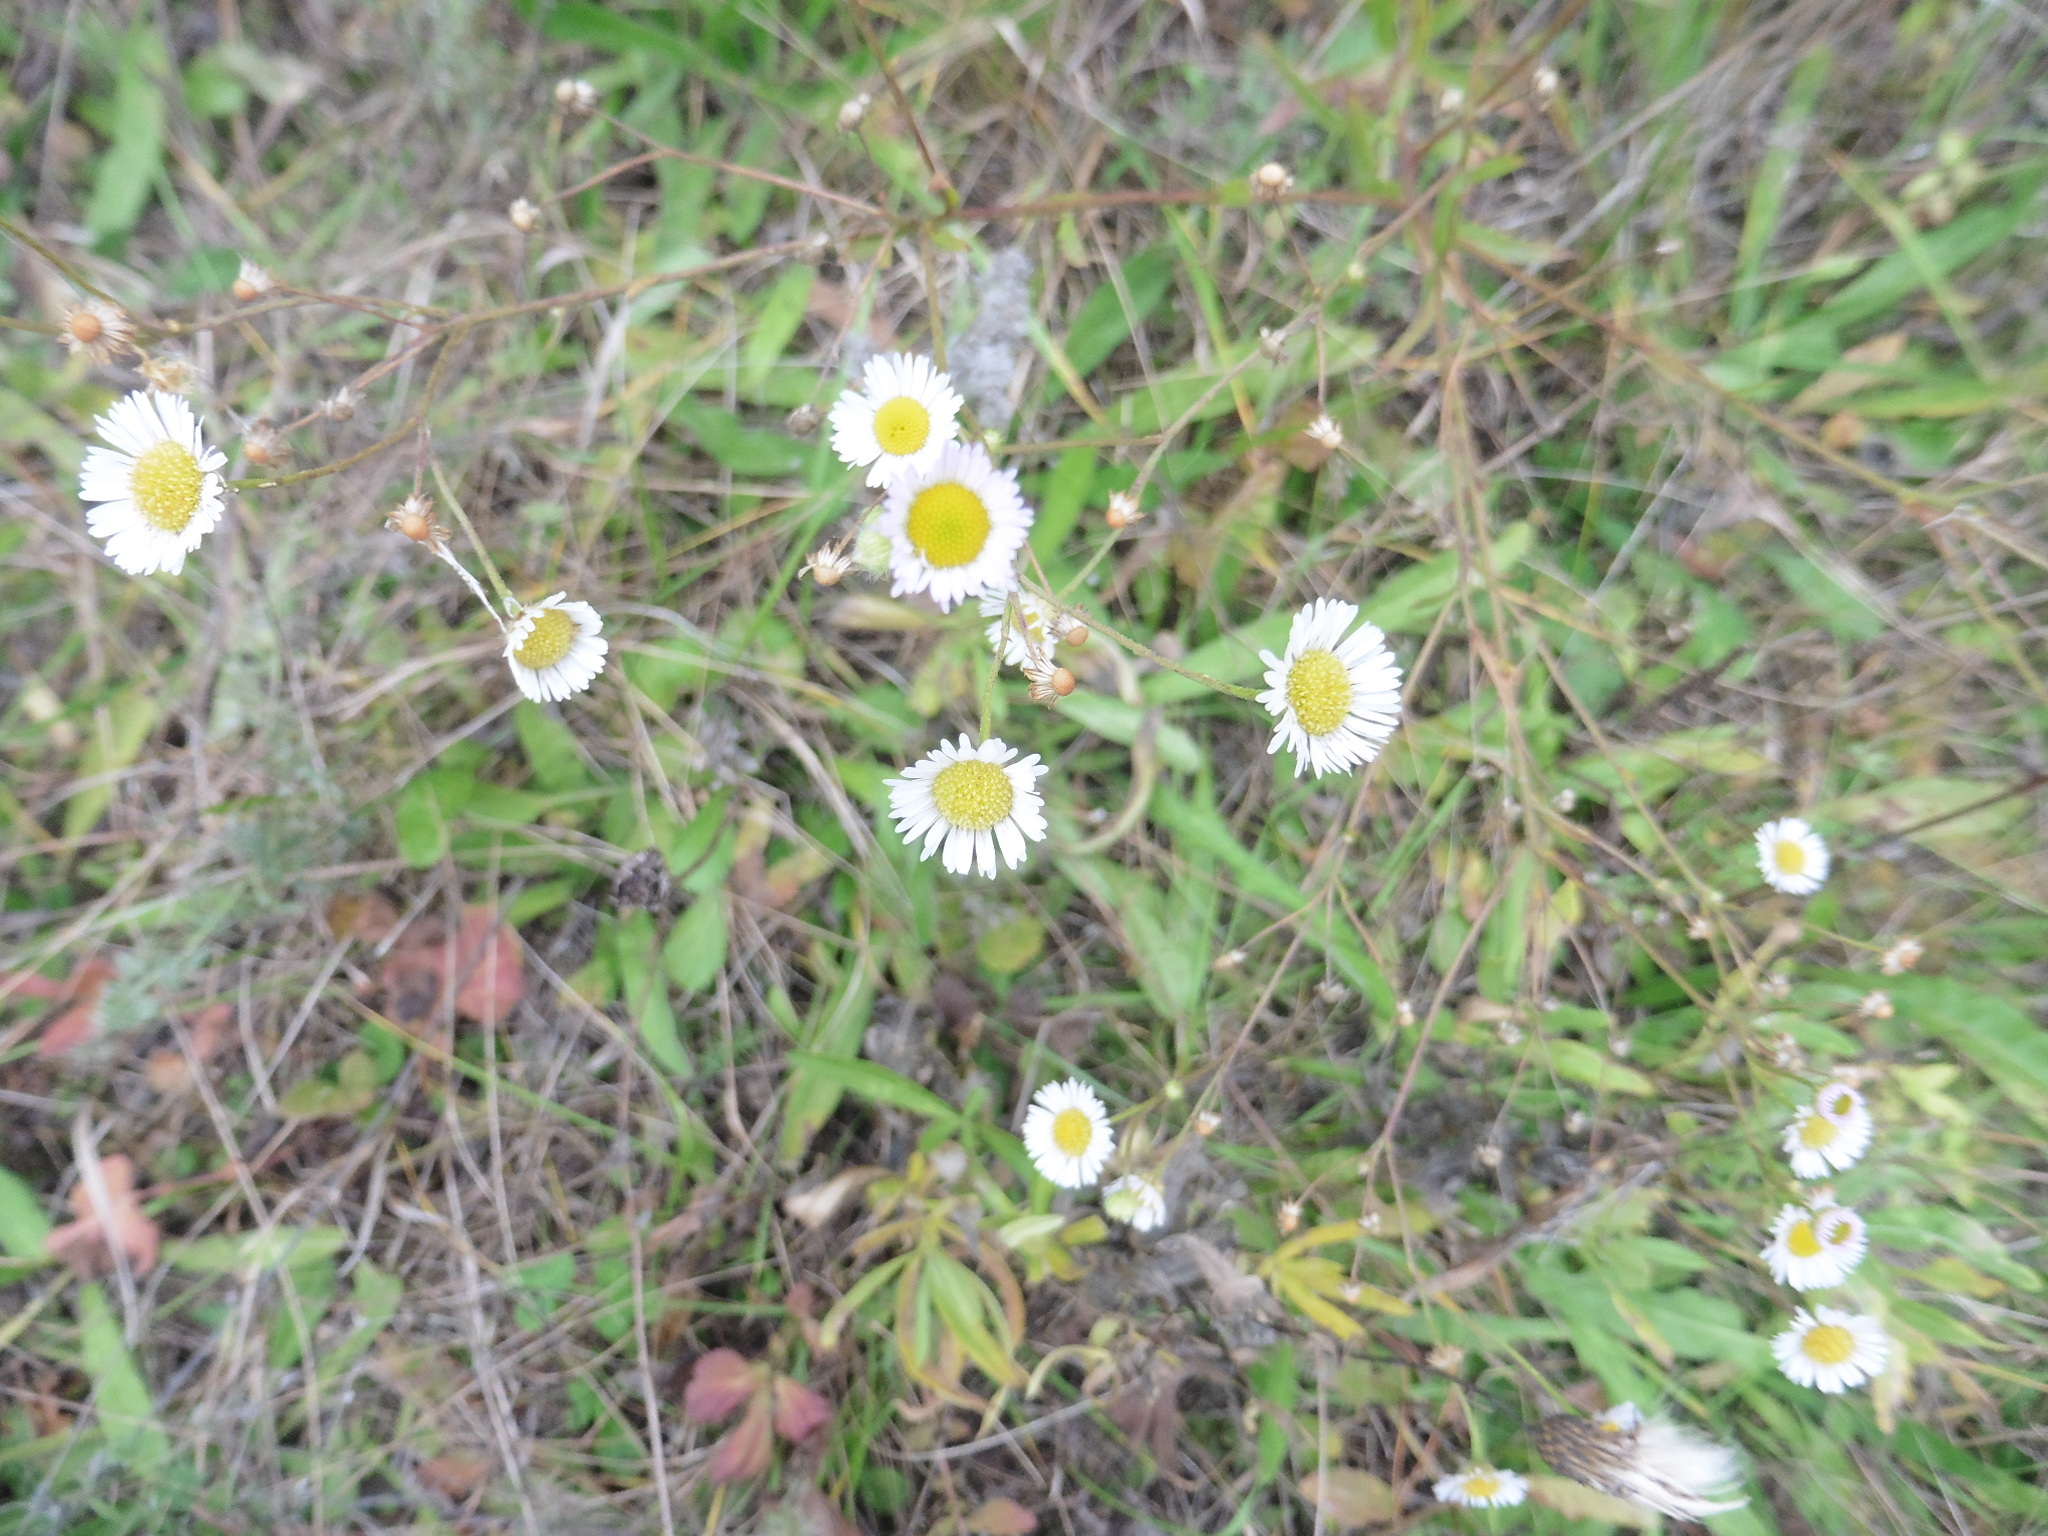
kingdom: Plantae
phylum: Tracheophyta
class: Magnoliopsida
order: Asterales
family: Asteraceae
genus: Erigeron
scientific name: Erigeron strigosus
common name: Common eastern fleabane
